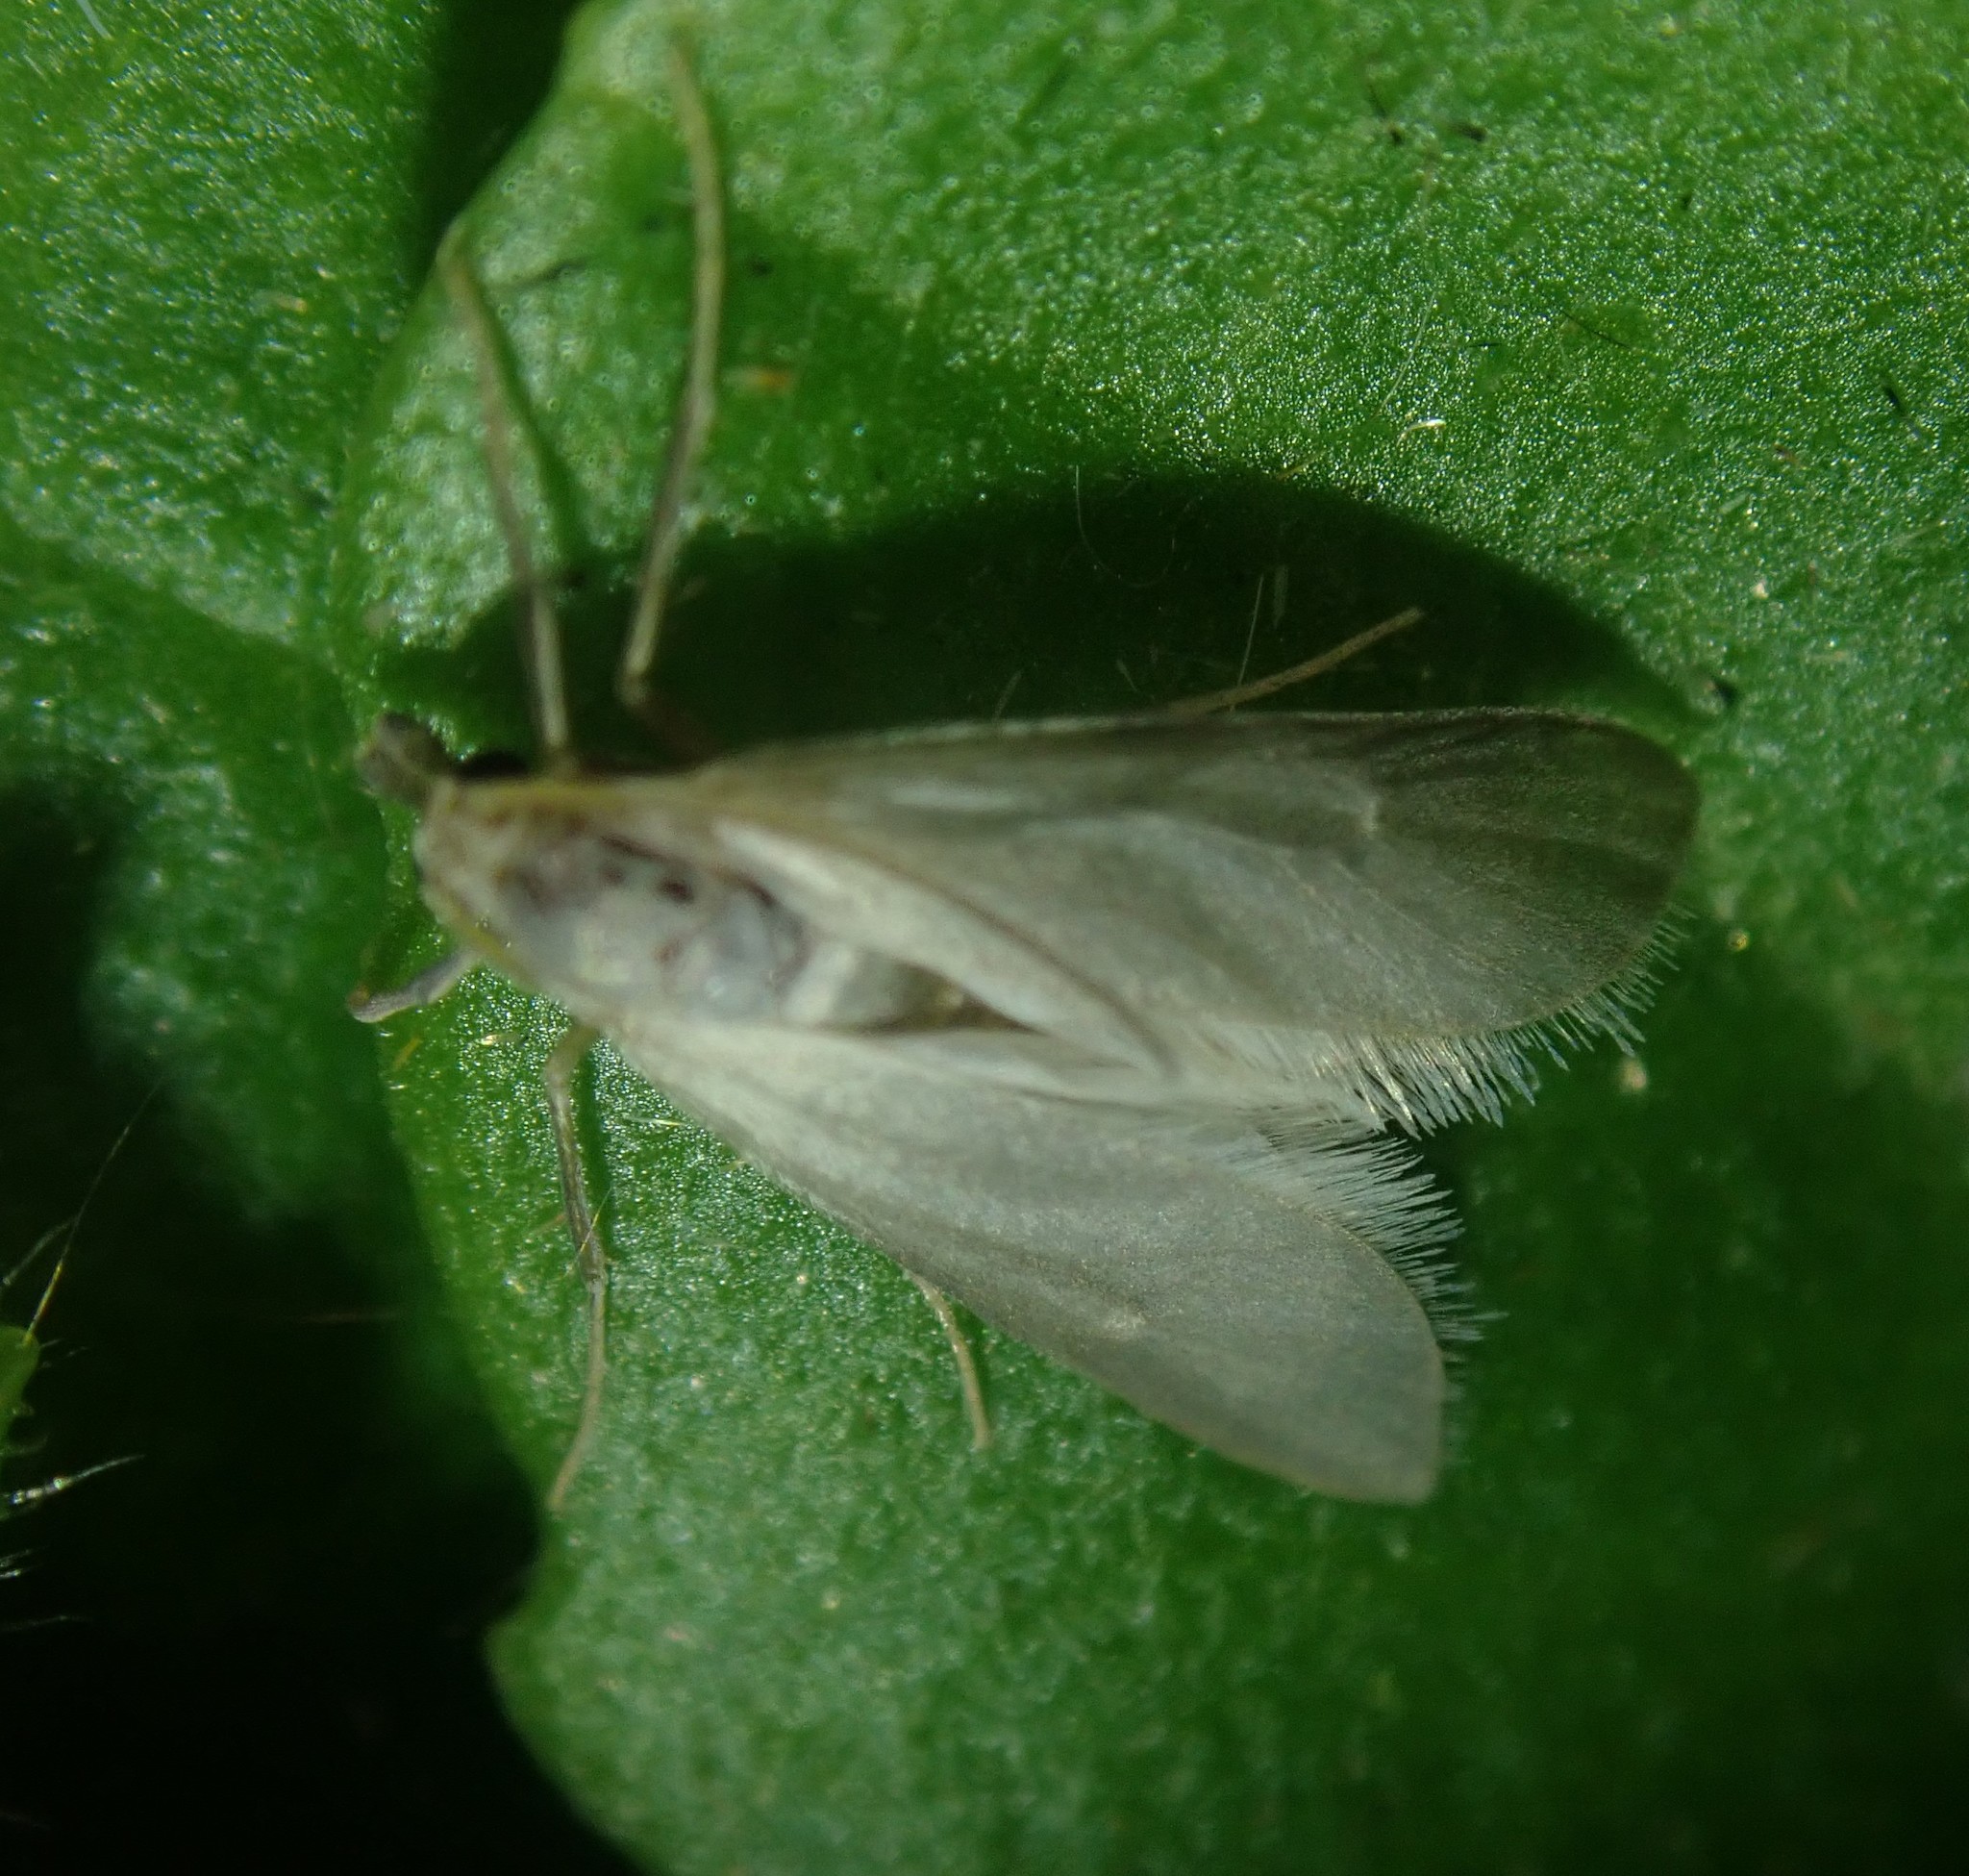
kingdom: Animalia
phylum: Arthropoda
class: Insecta
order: Lepidoptera
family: Crambidae
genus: Acentria
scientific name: Acentria ephemerella
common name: European water moth
